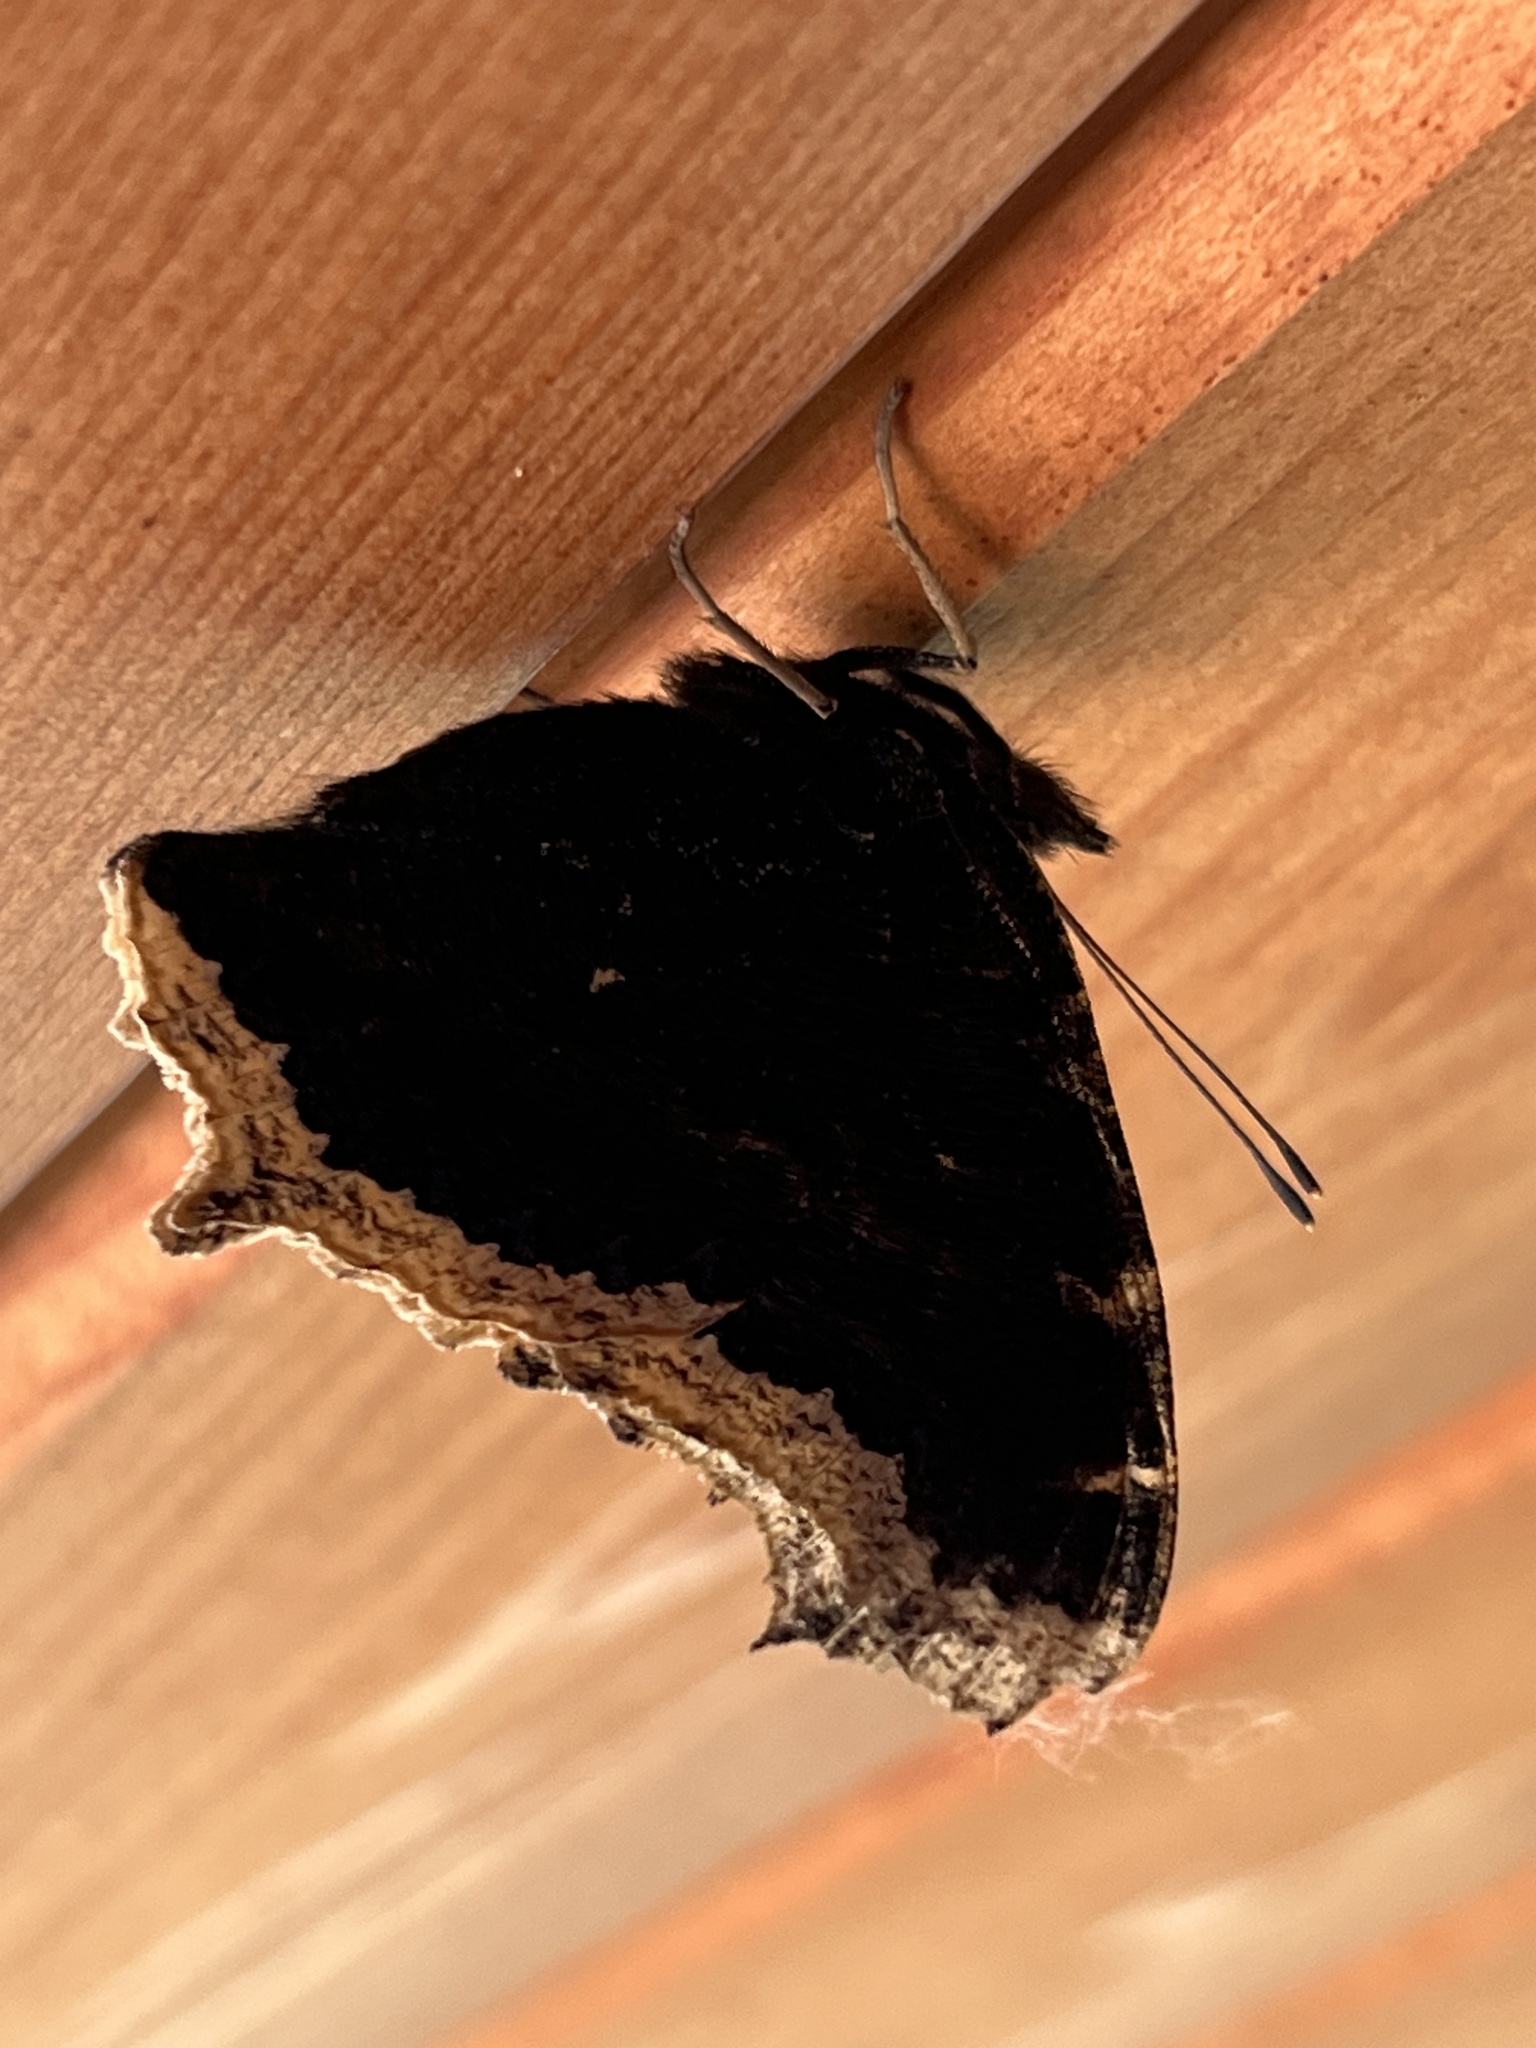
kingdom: Animalia
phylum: Arthropoda
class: Insecta
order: Lepidoptera
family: Nymphalidae
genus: Nymphalis
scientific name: Nymphalis antiopa
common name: Camberwell beauty
